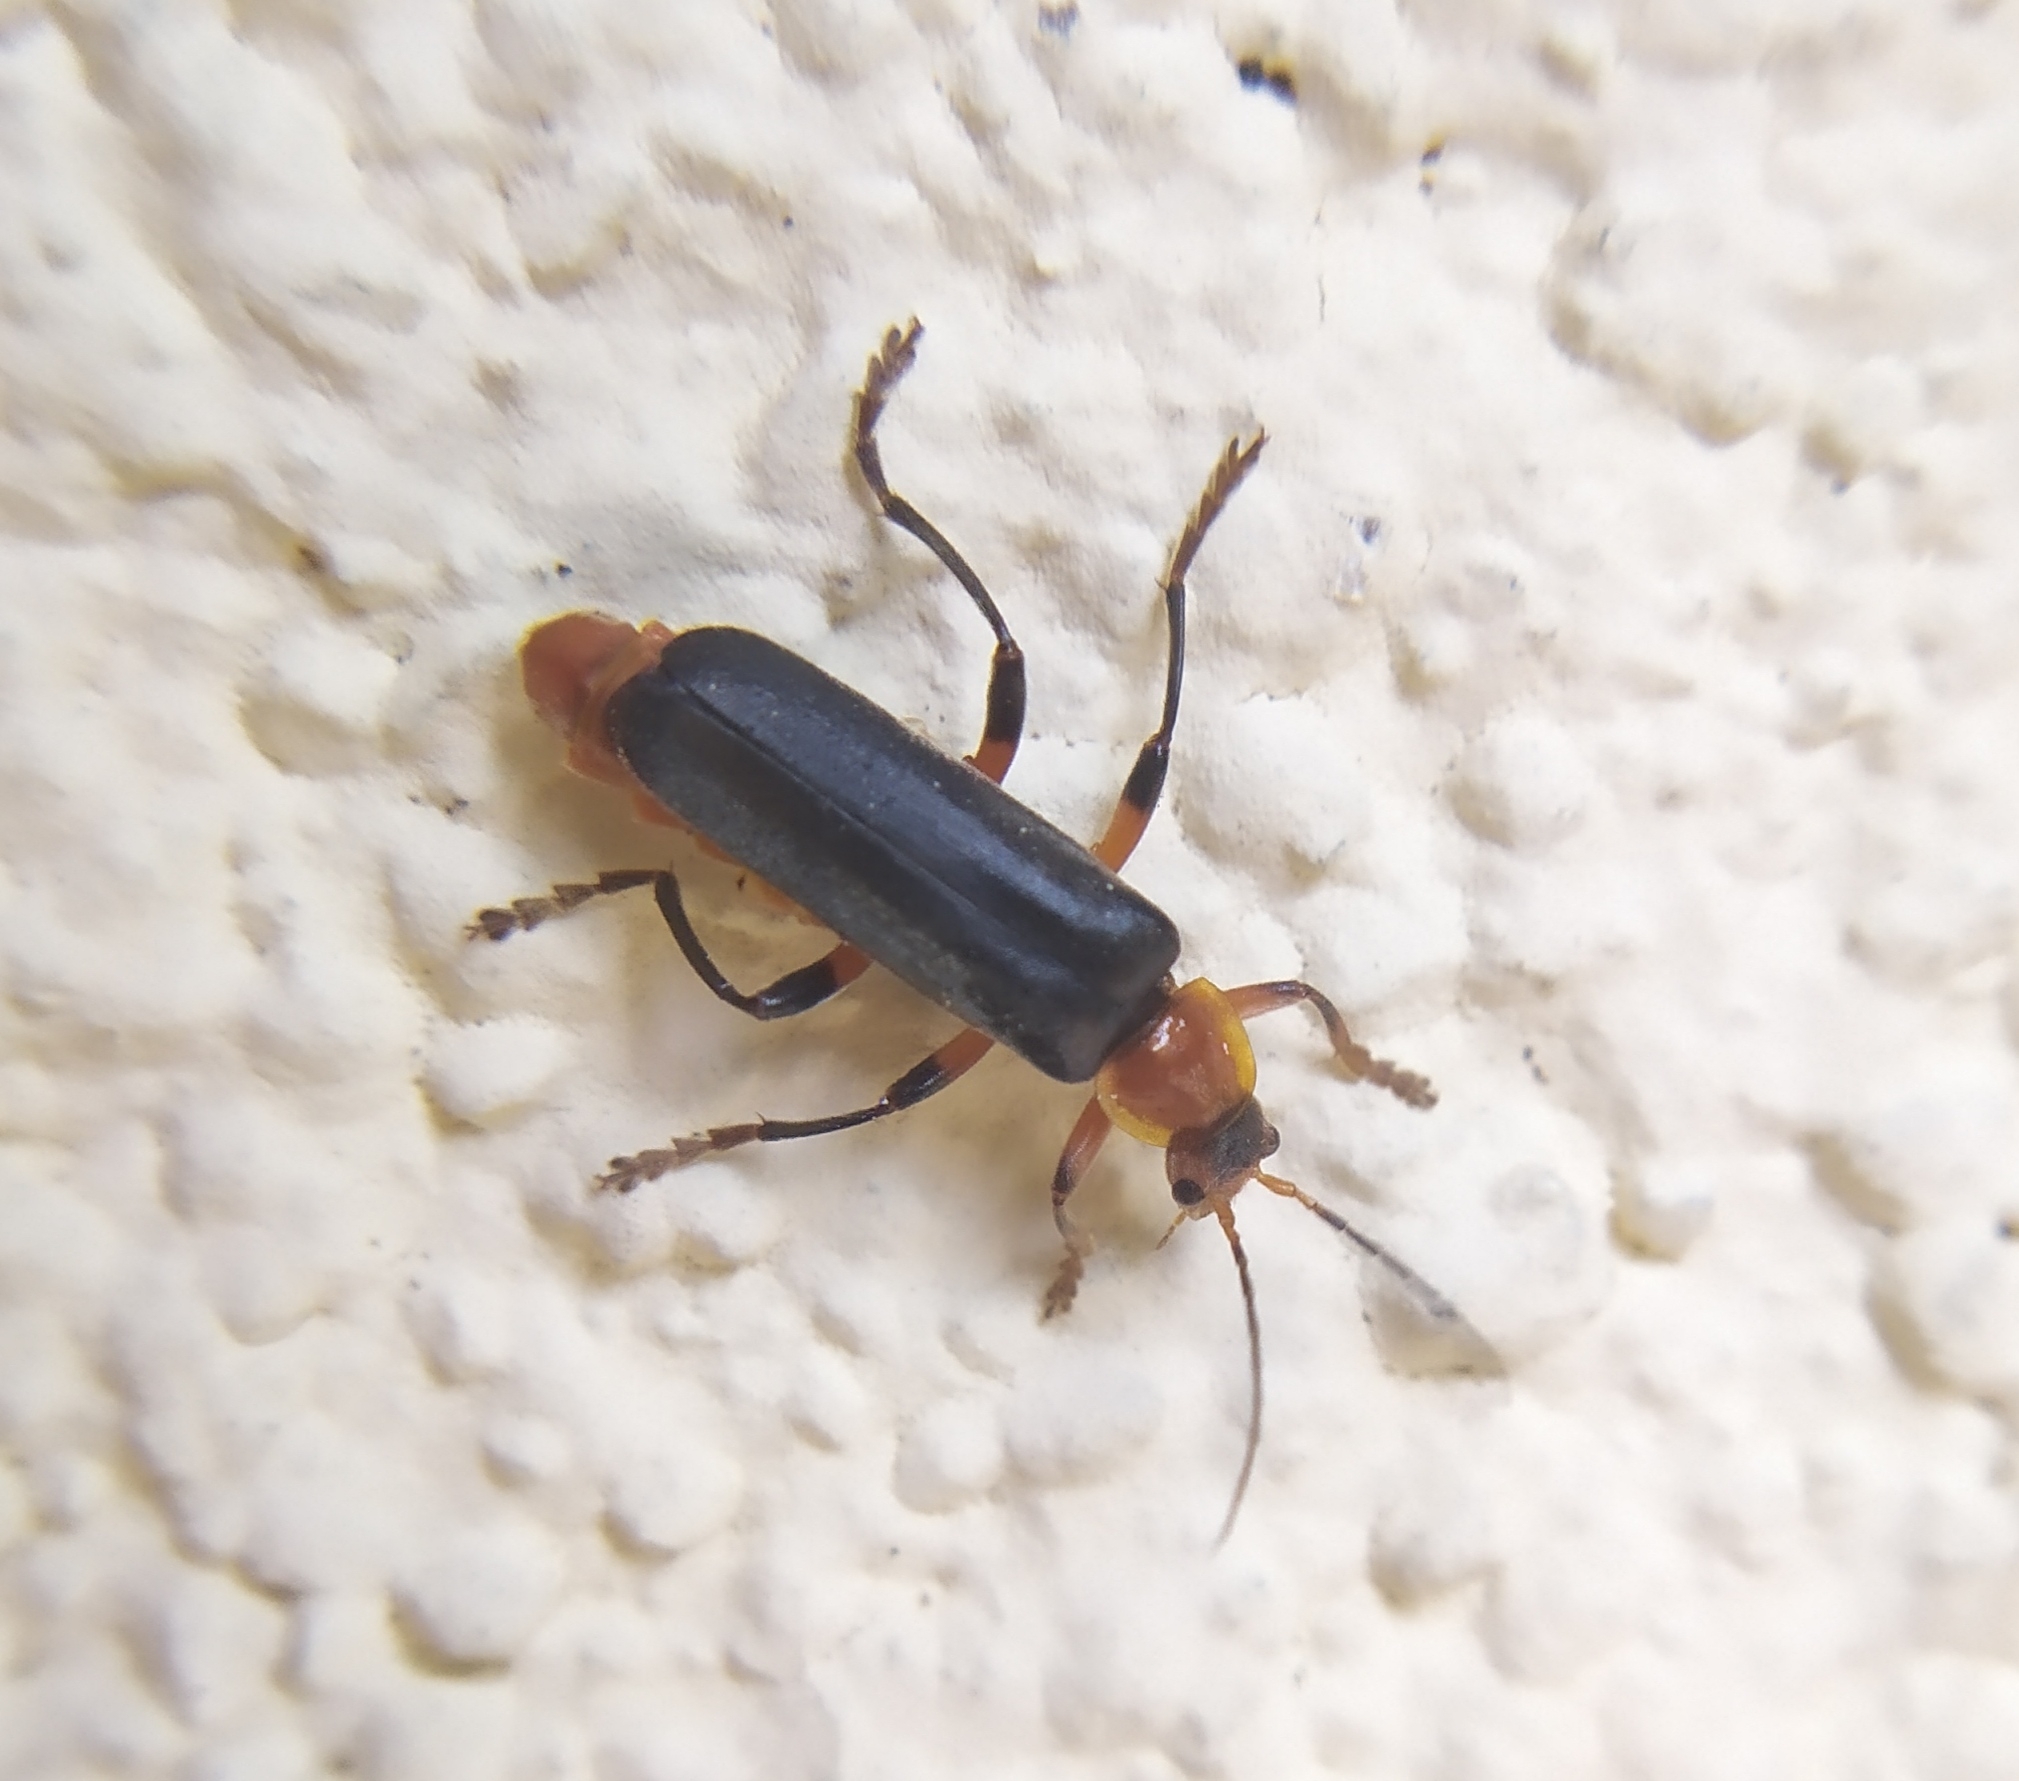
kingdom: Animalia
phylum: Arthropoda
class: Insecta
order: Coleoptera
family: Cantharidae
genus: Cantharis
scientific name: Cantharis livida
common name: Livid soldier beetle
